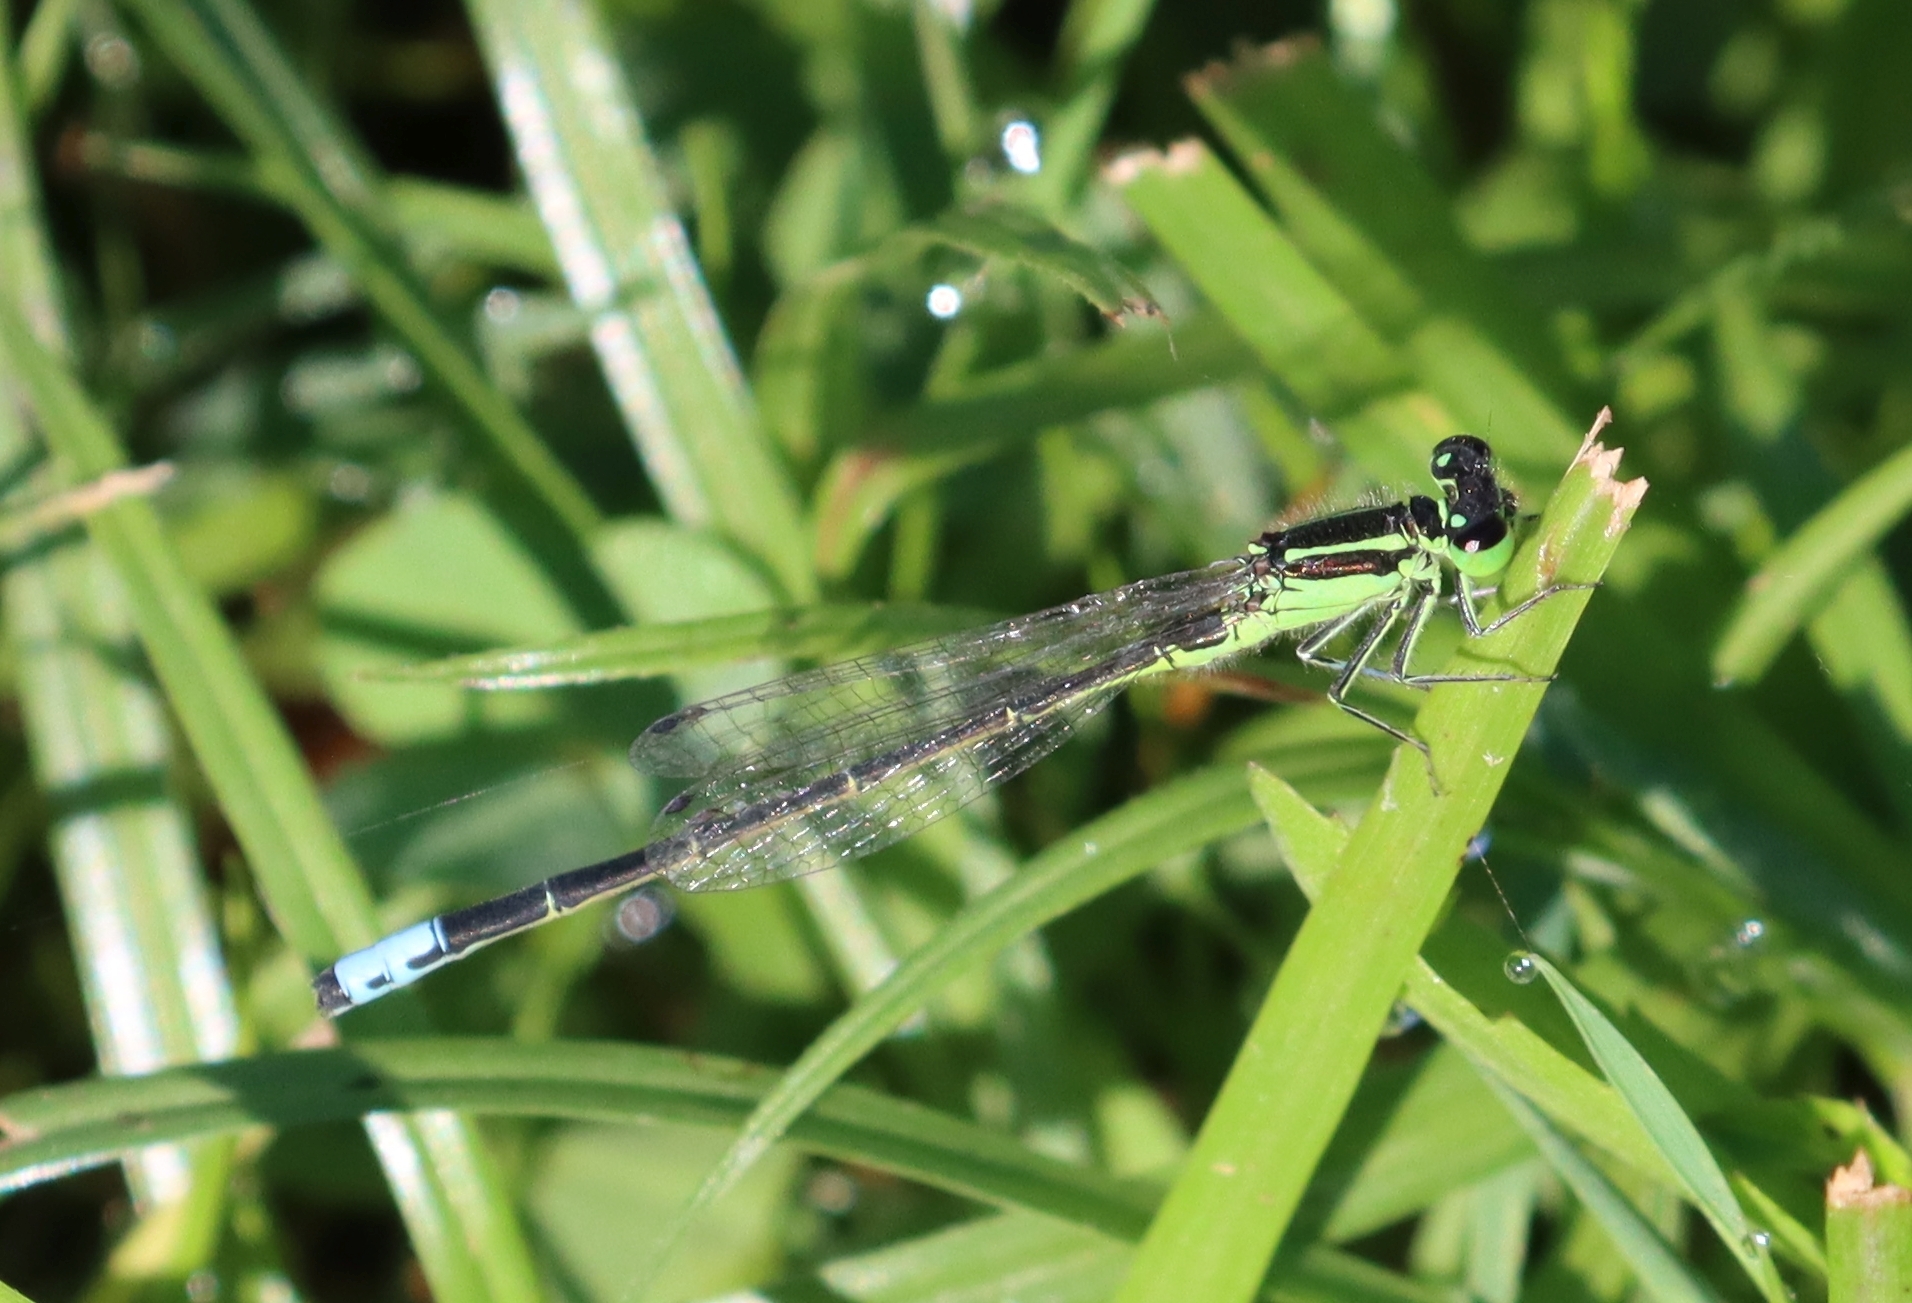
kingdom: Animalia
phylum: Arthropoda
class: Insecta
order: Odonata
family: Coenagrionidae
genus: Ischnura
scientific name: Ischnura verticalis
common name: Eastern forktail
